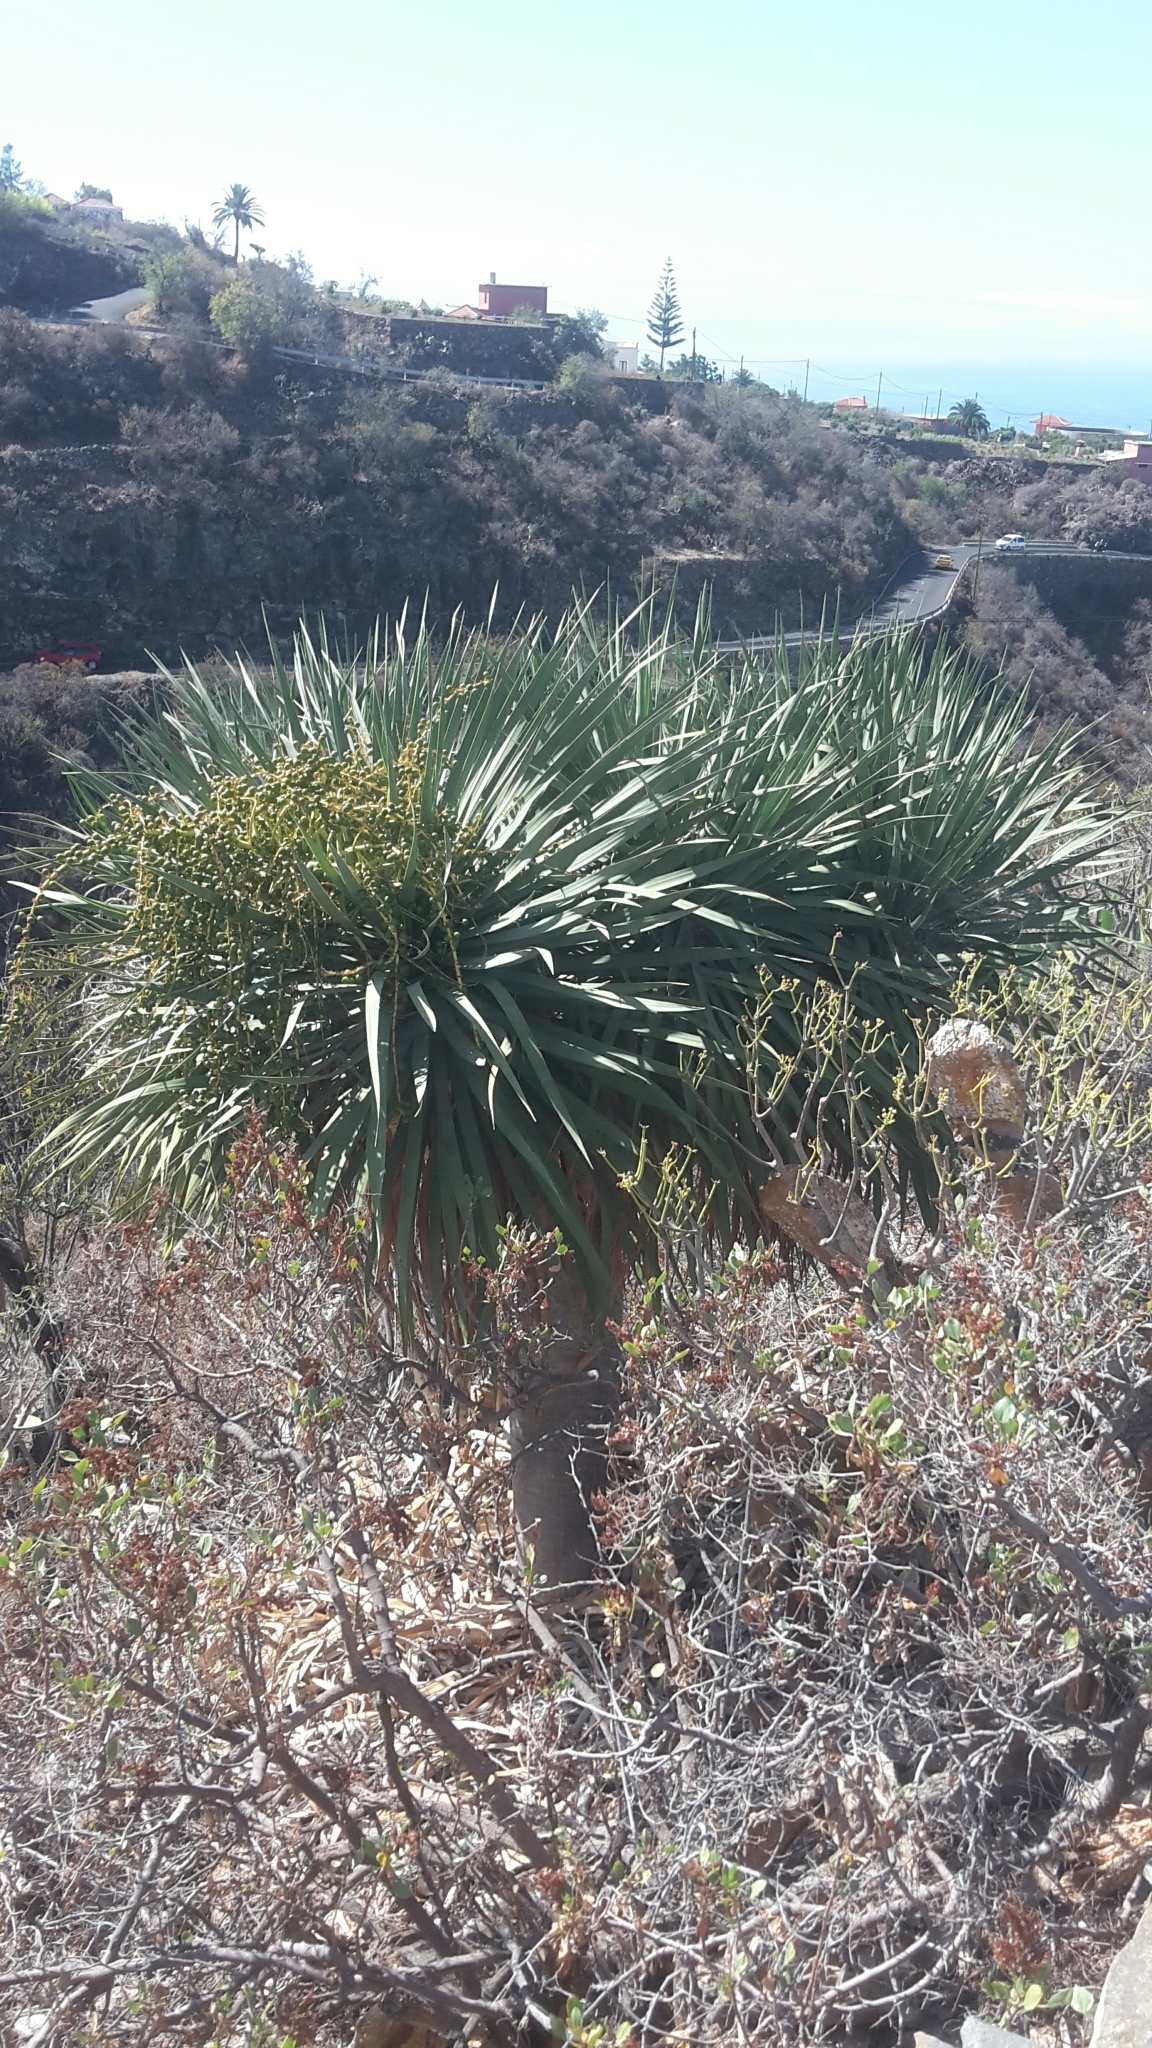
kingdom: Plantae
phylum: Tracheophyta
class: Liliopsida
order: Asparagales
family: Asparagaceae
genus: Dracaena
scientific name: Dracaena draco
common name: Canary island dragon tree
